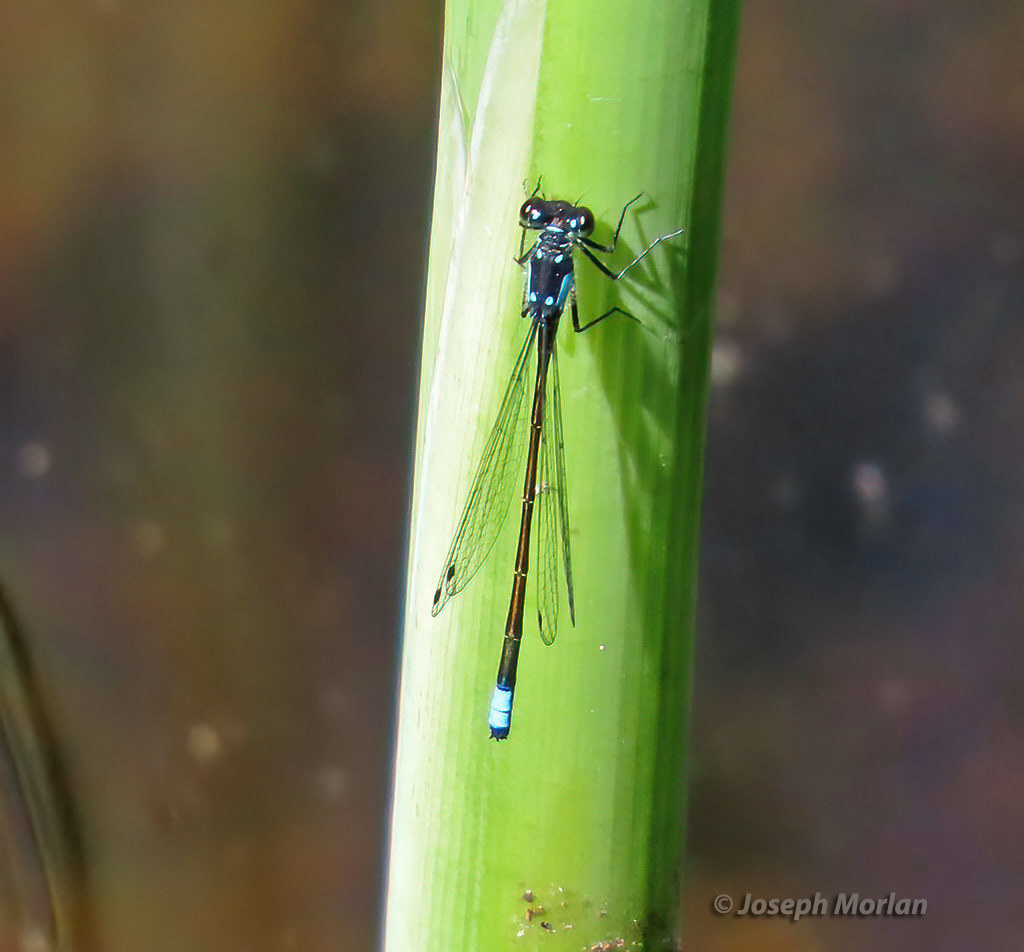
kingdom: Animalia
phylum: Arthropoda
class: Insecta
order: Odonata
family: Coenagrionidae
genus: Ischnura
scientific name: Ischnura cervula
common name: Pacific forktail
